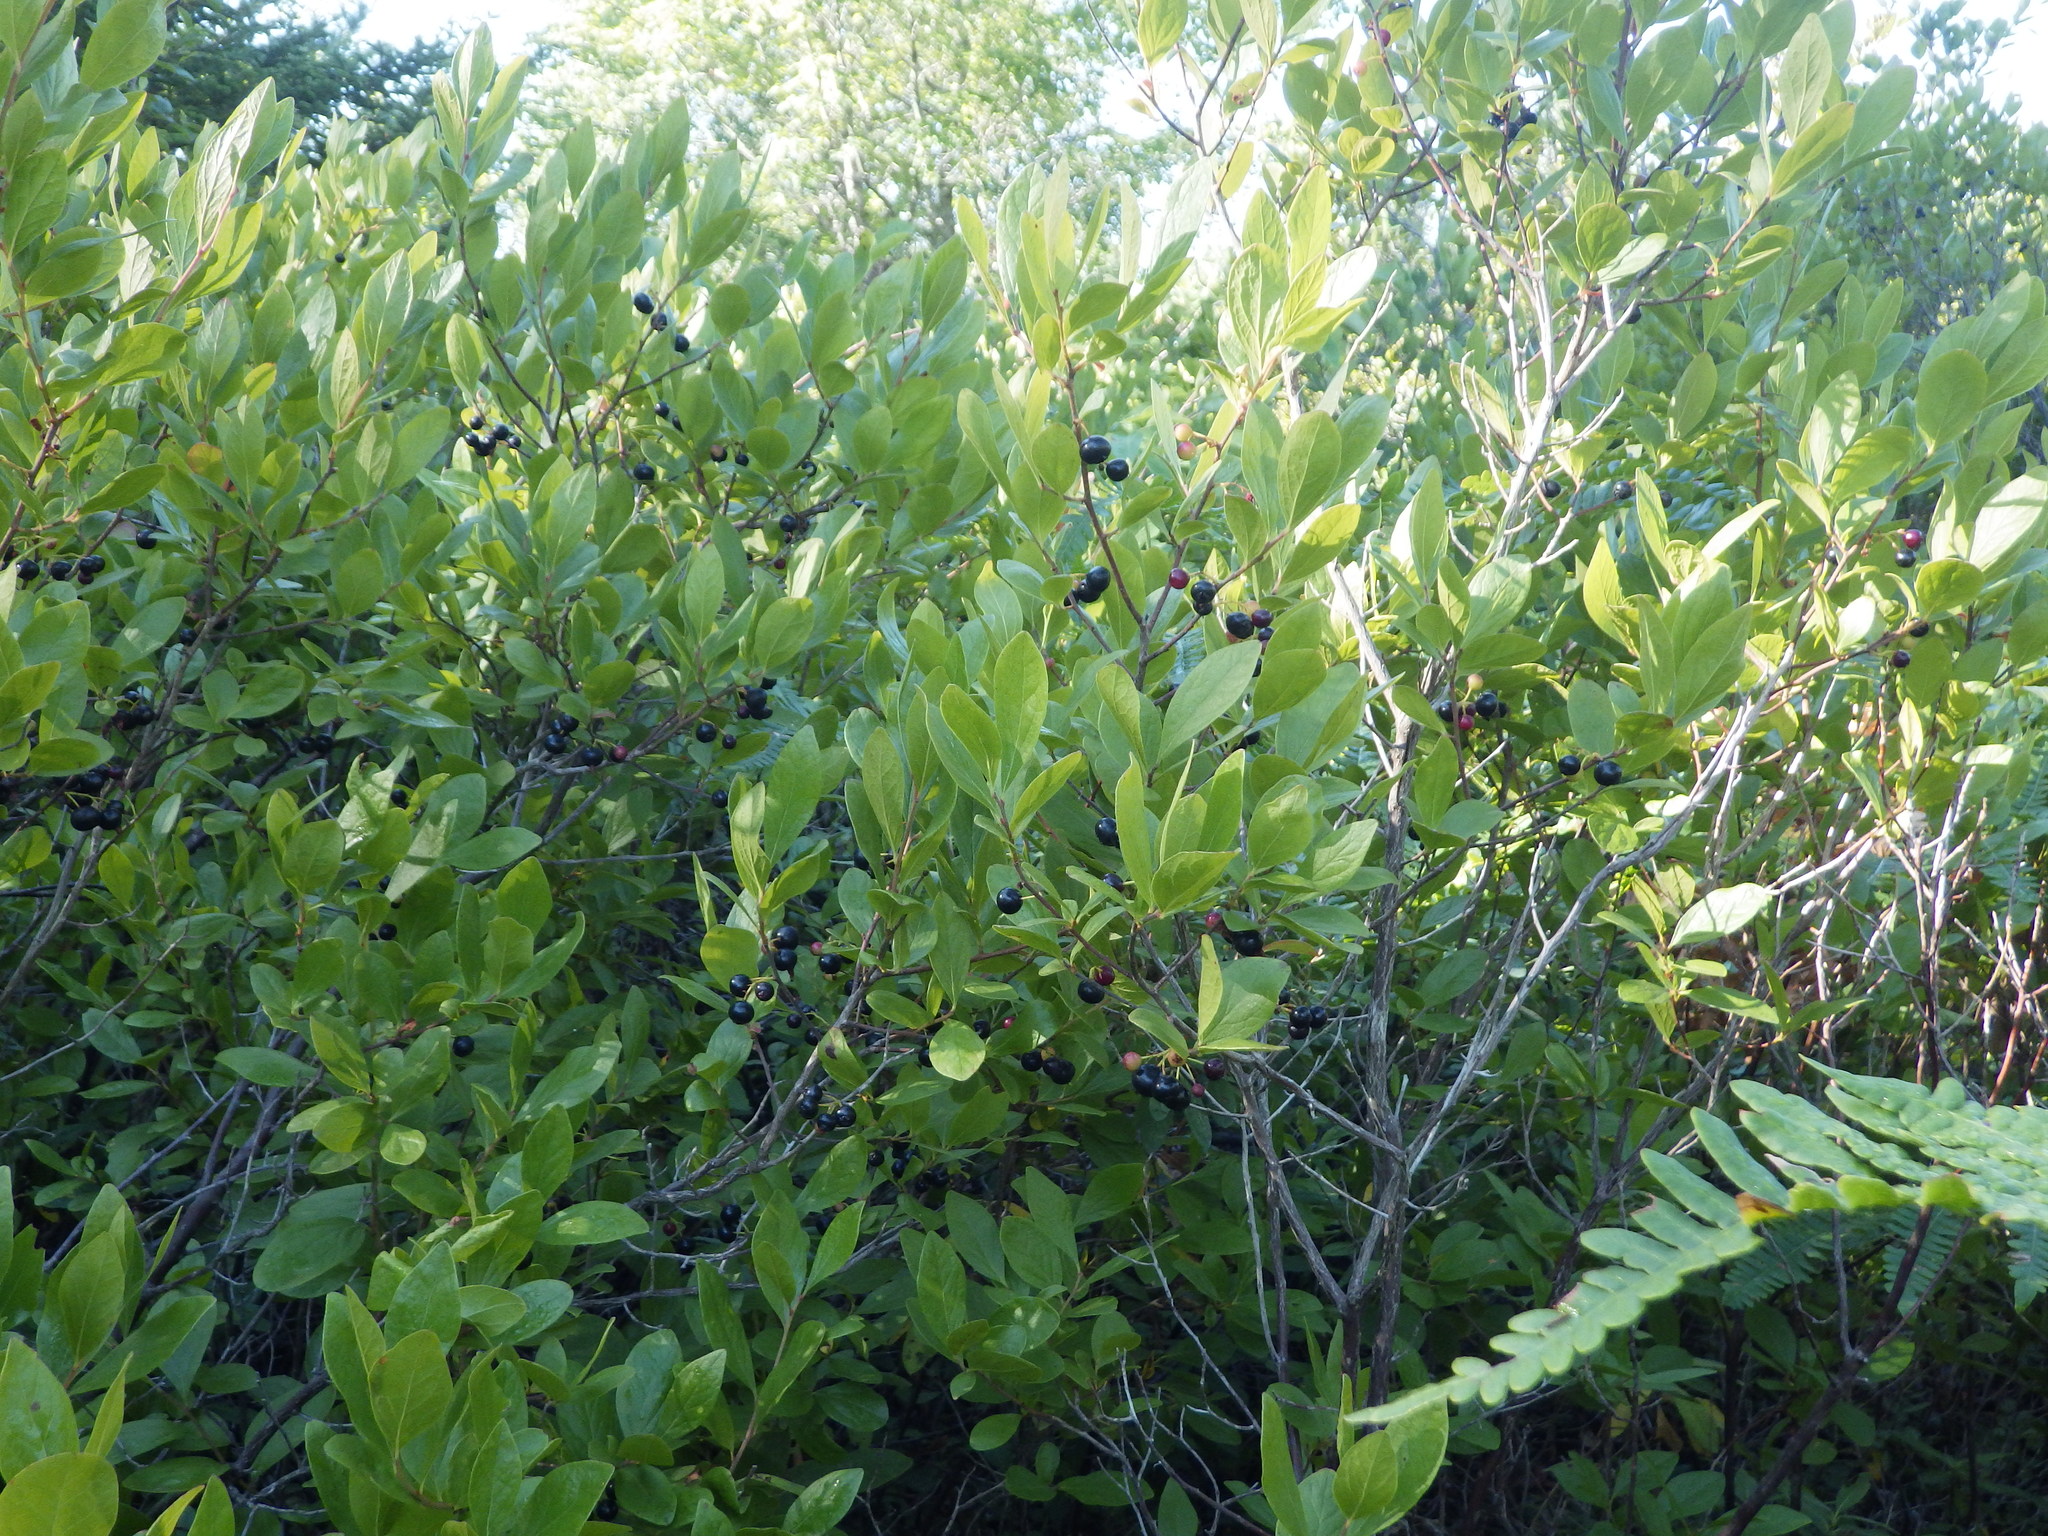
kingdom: Plantae
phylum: Tracheophyta
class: Magnoliopsida
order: Ericales
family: Ericaceae
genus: Gaylussacia
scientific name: Gaylussacia baccata
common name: Black huckleberry
